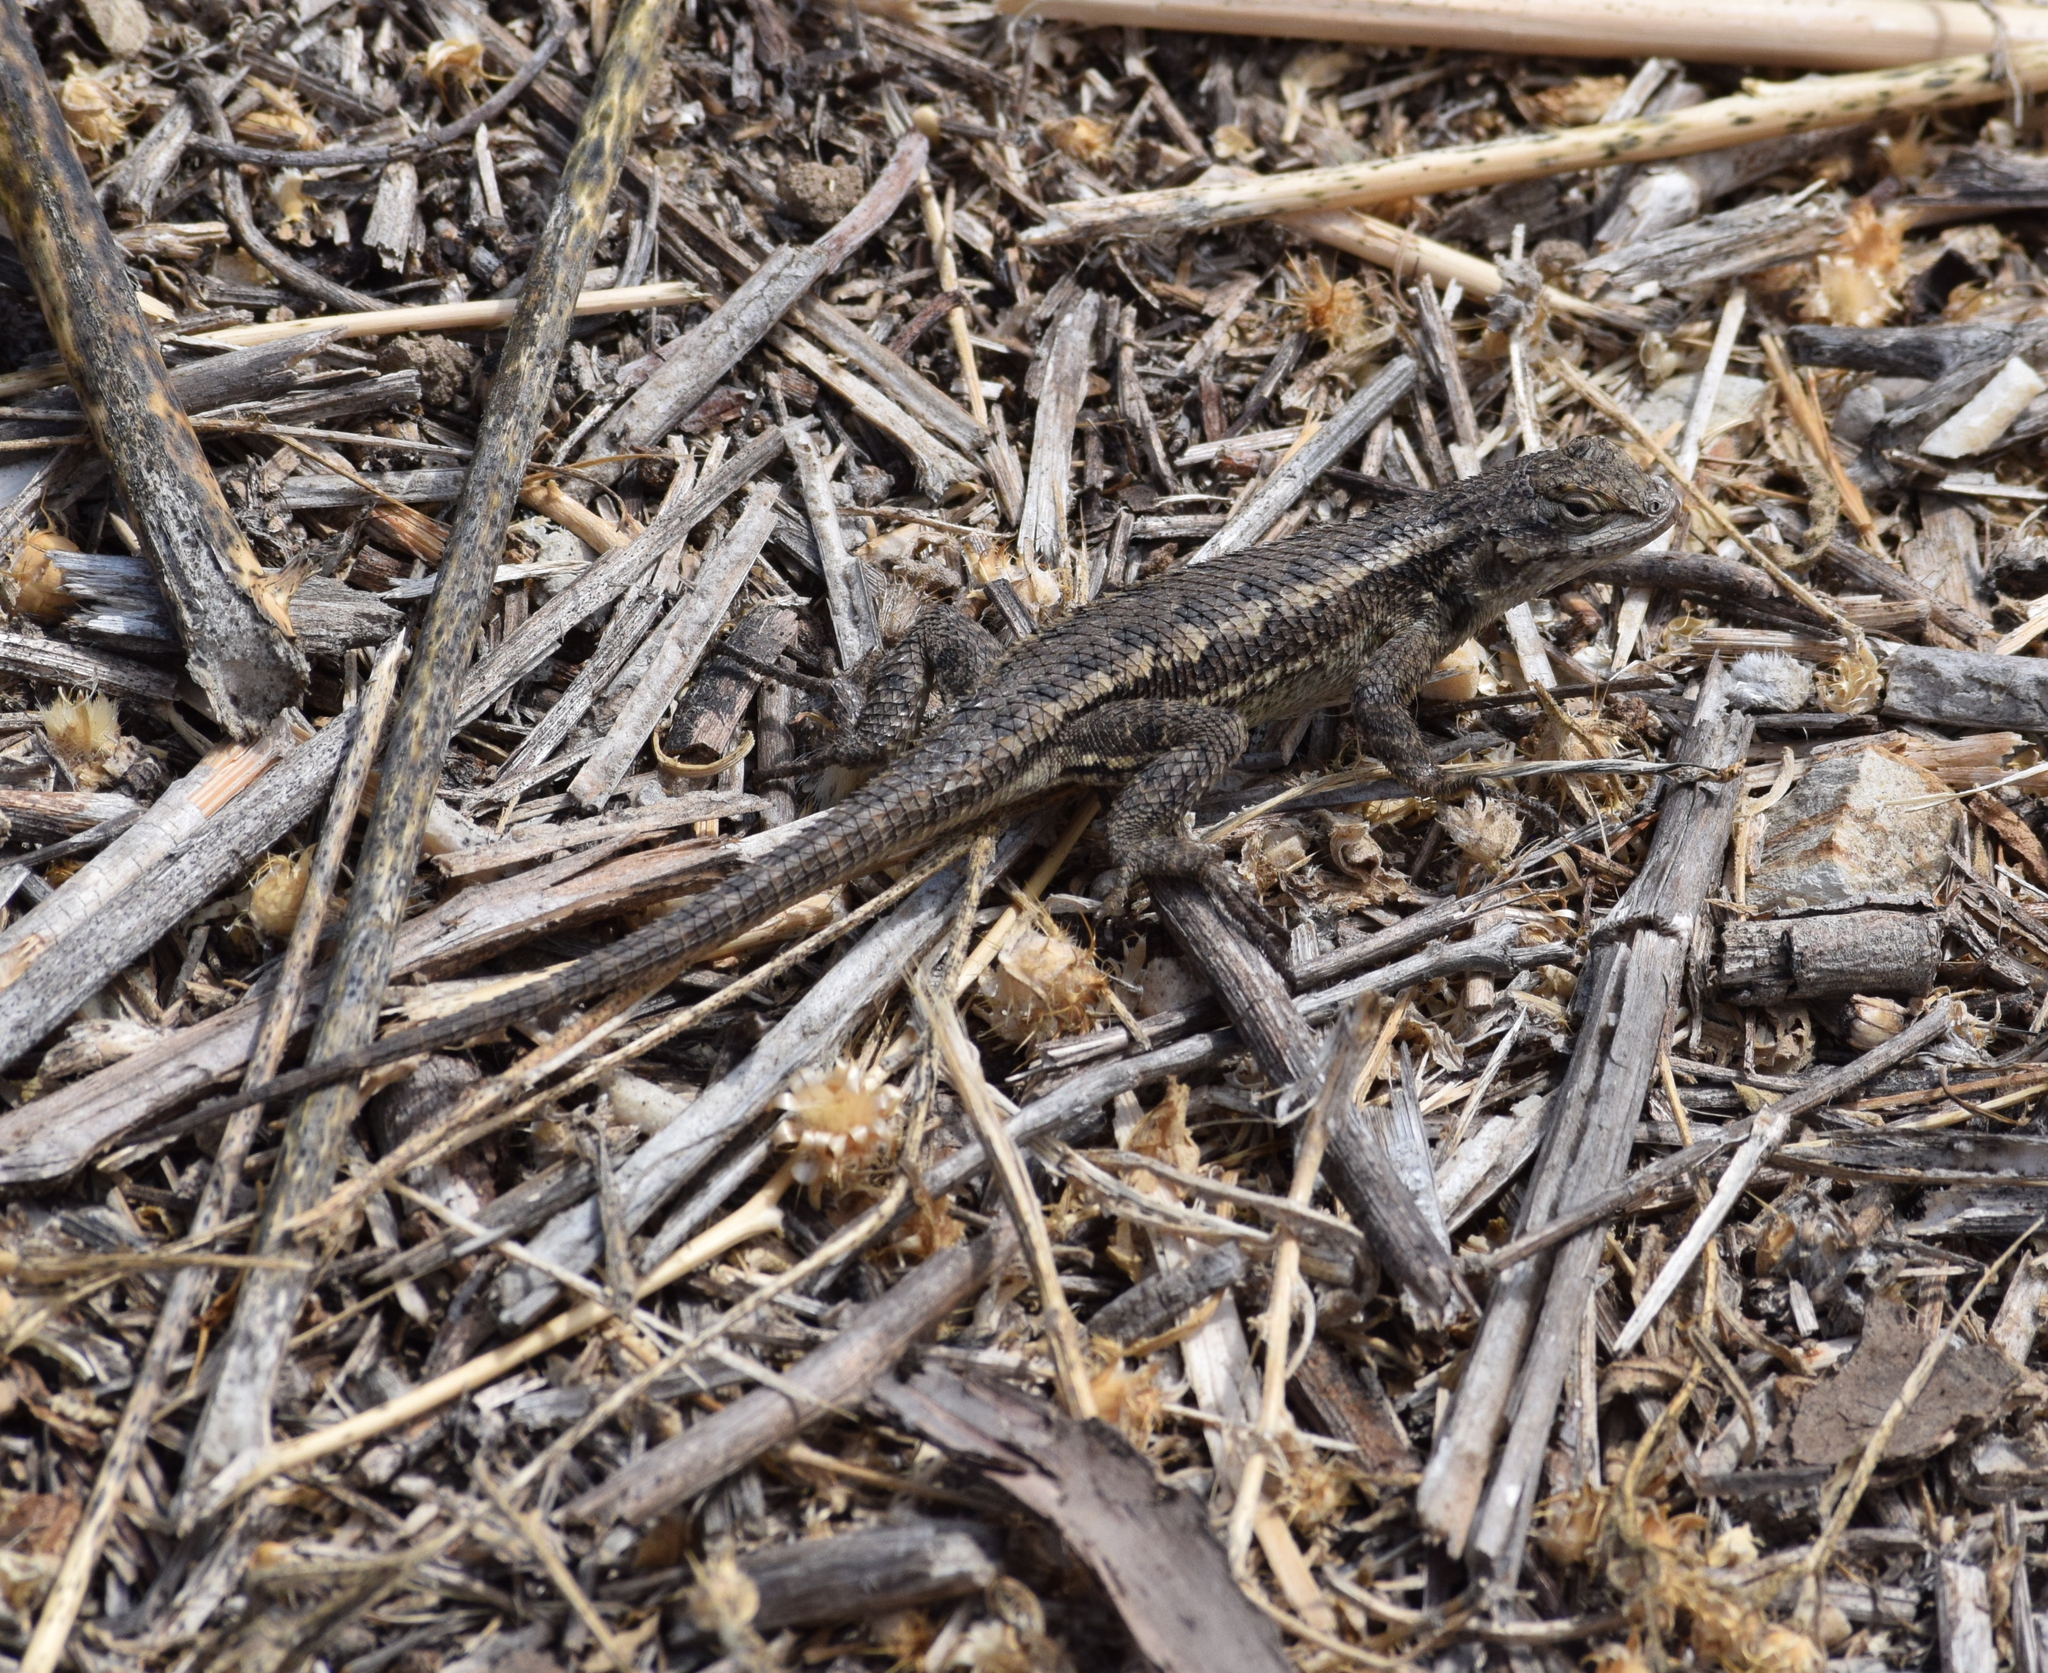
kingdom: Animalia
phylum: Chordata
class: Squamata
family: Phrynosomatidae
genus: Sceloporus
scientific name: Sceloporus occidentalis
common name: Western fence lizard
